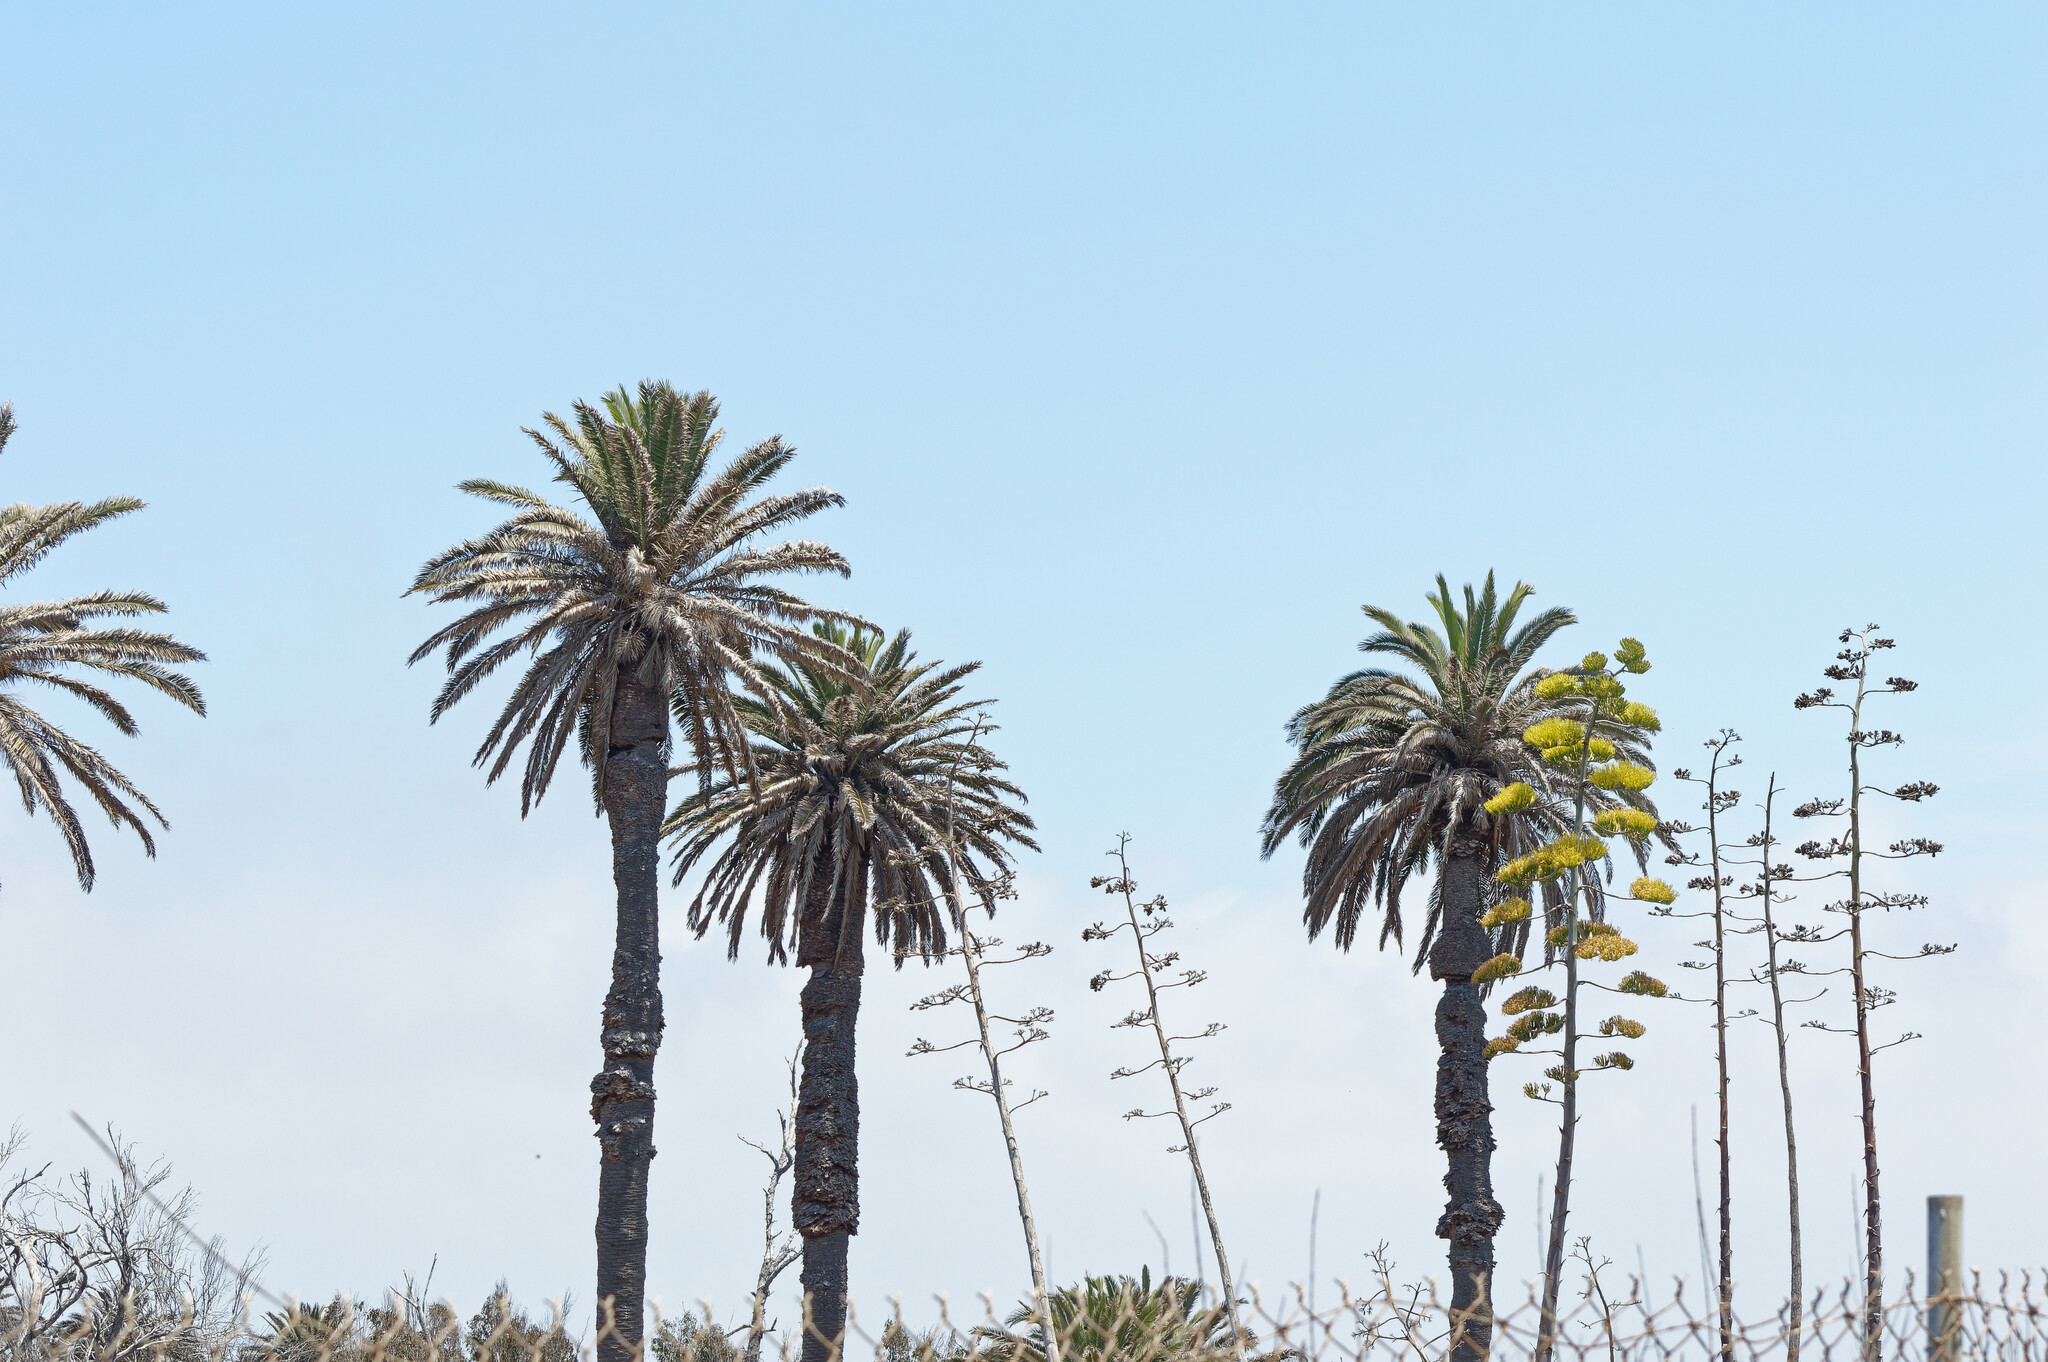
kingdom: Plantae
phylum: Tracheophyta
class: Liliopsida
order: Arecales
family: Arecaceae
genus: Phoenix
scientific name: Phoenix canariensis
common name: Canary island date palm
